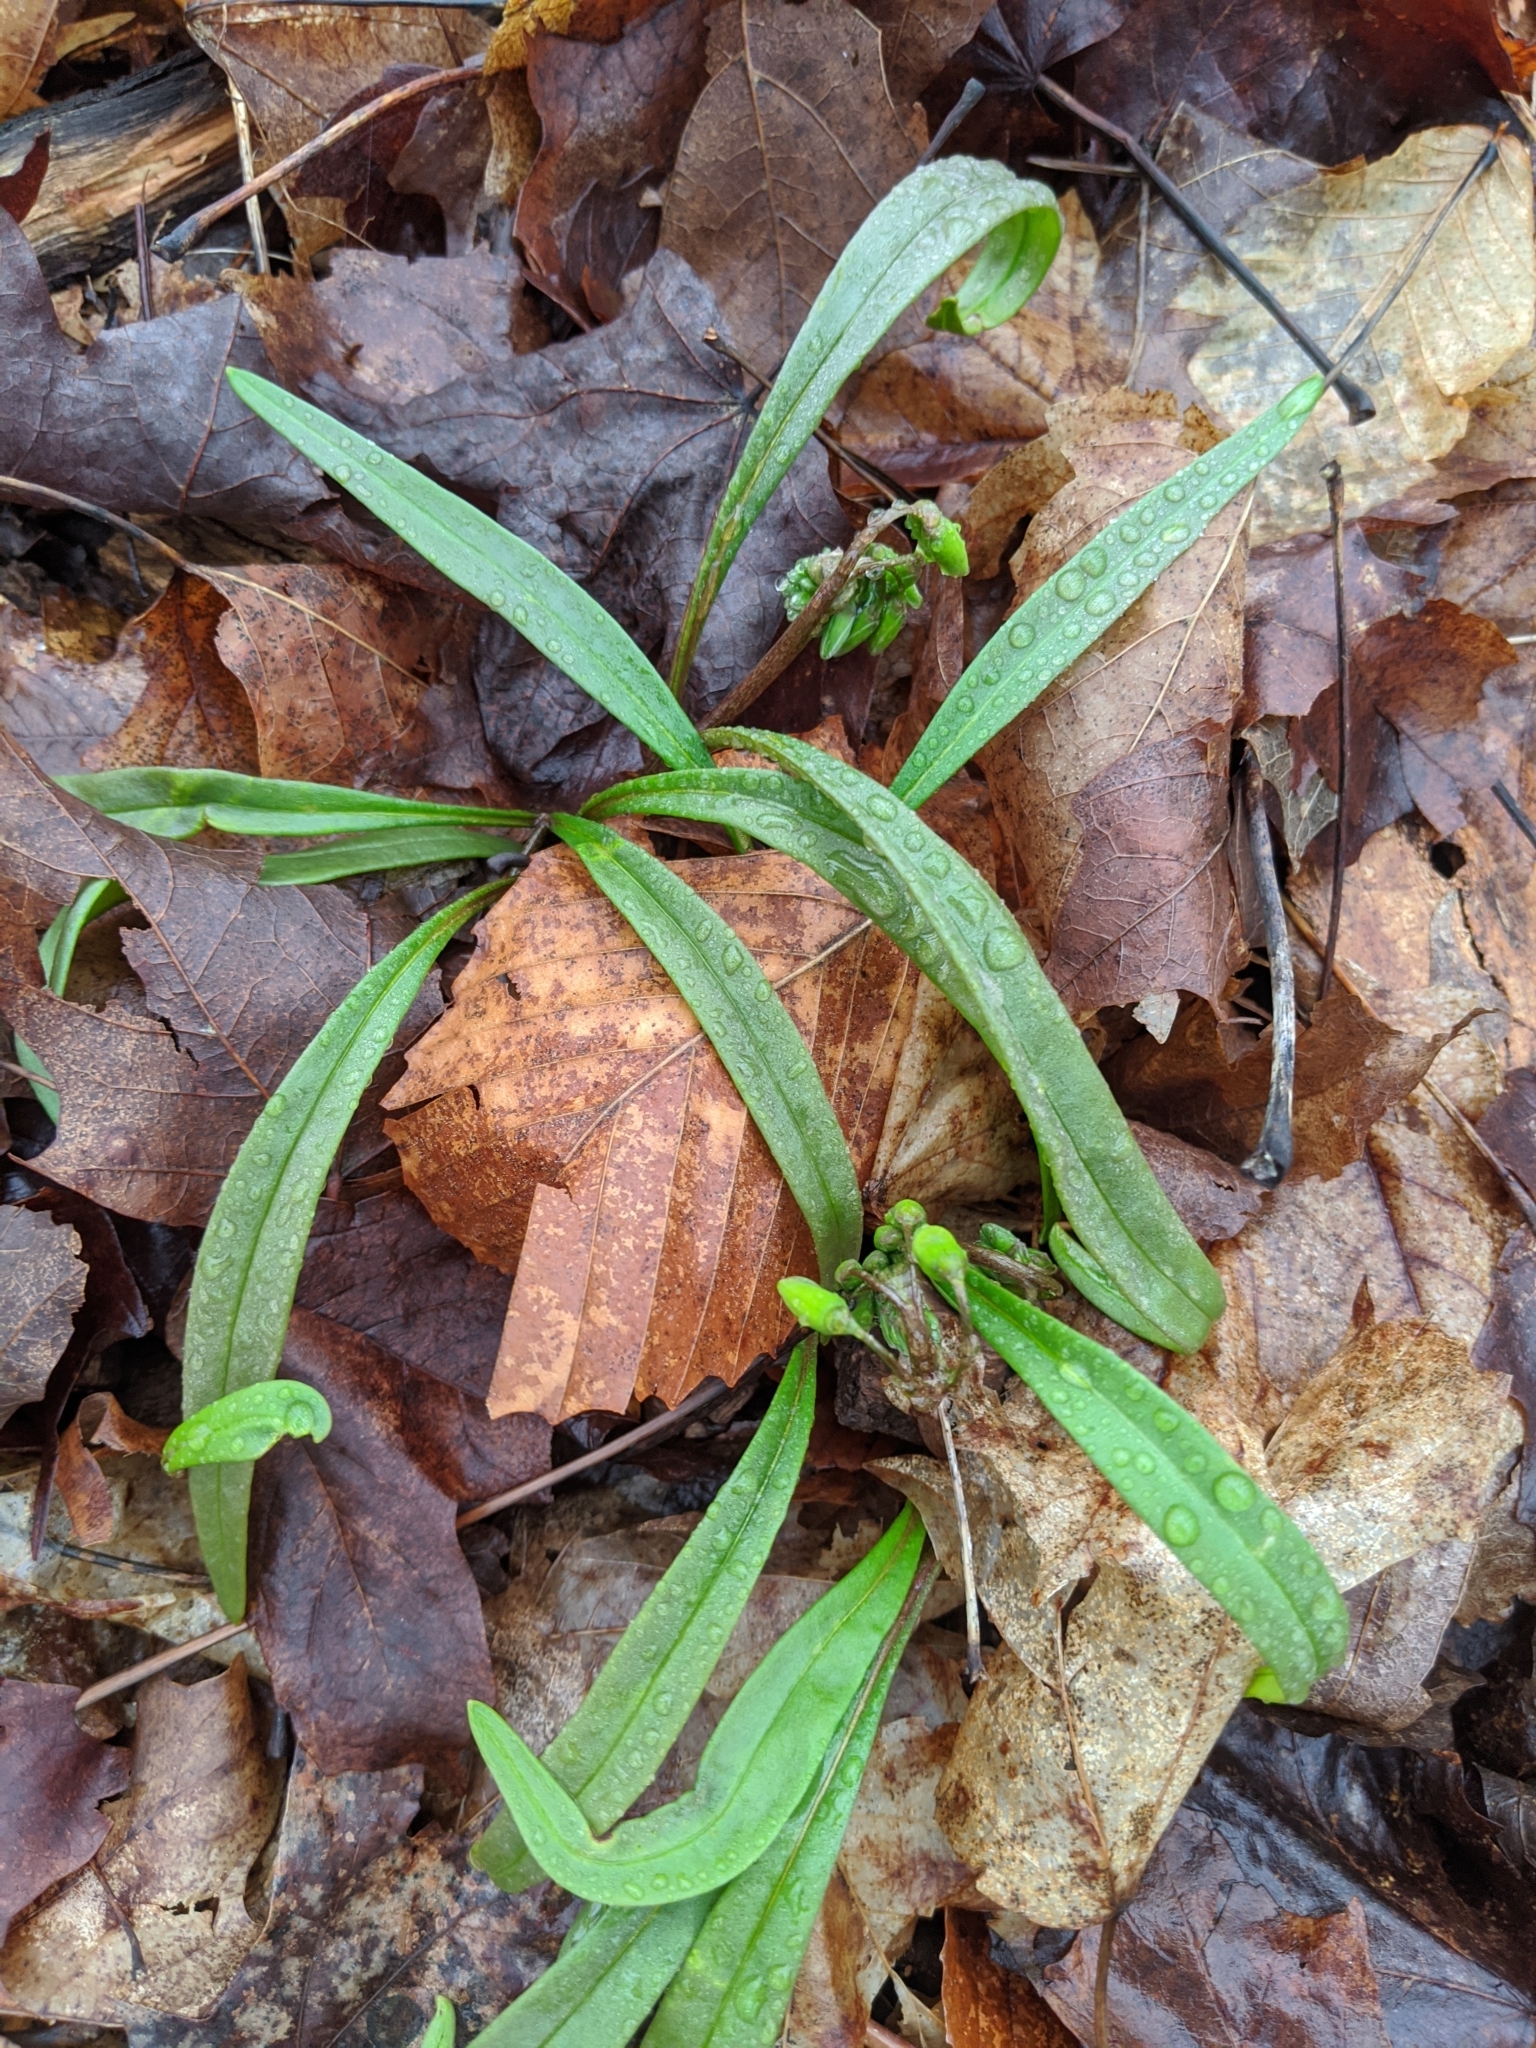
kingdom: Plantae
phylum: Tracheophyta
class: Magnoliopsida
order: Caryophyllales
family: Montiaceae
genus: Claytonia
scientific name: Claytonia virginica
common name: Virginia springbeauty
